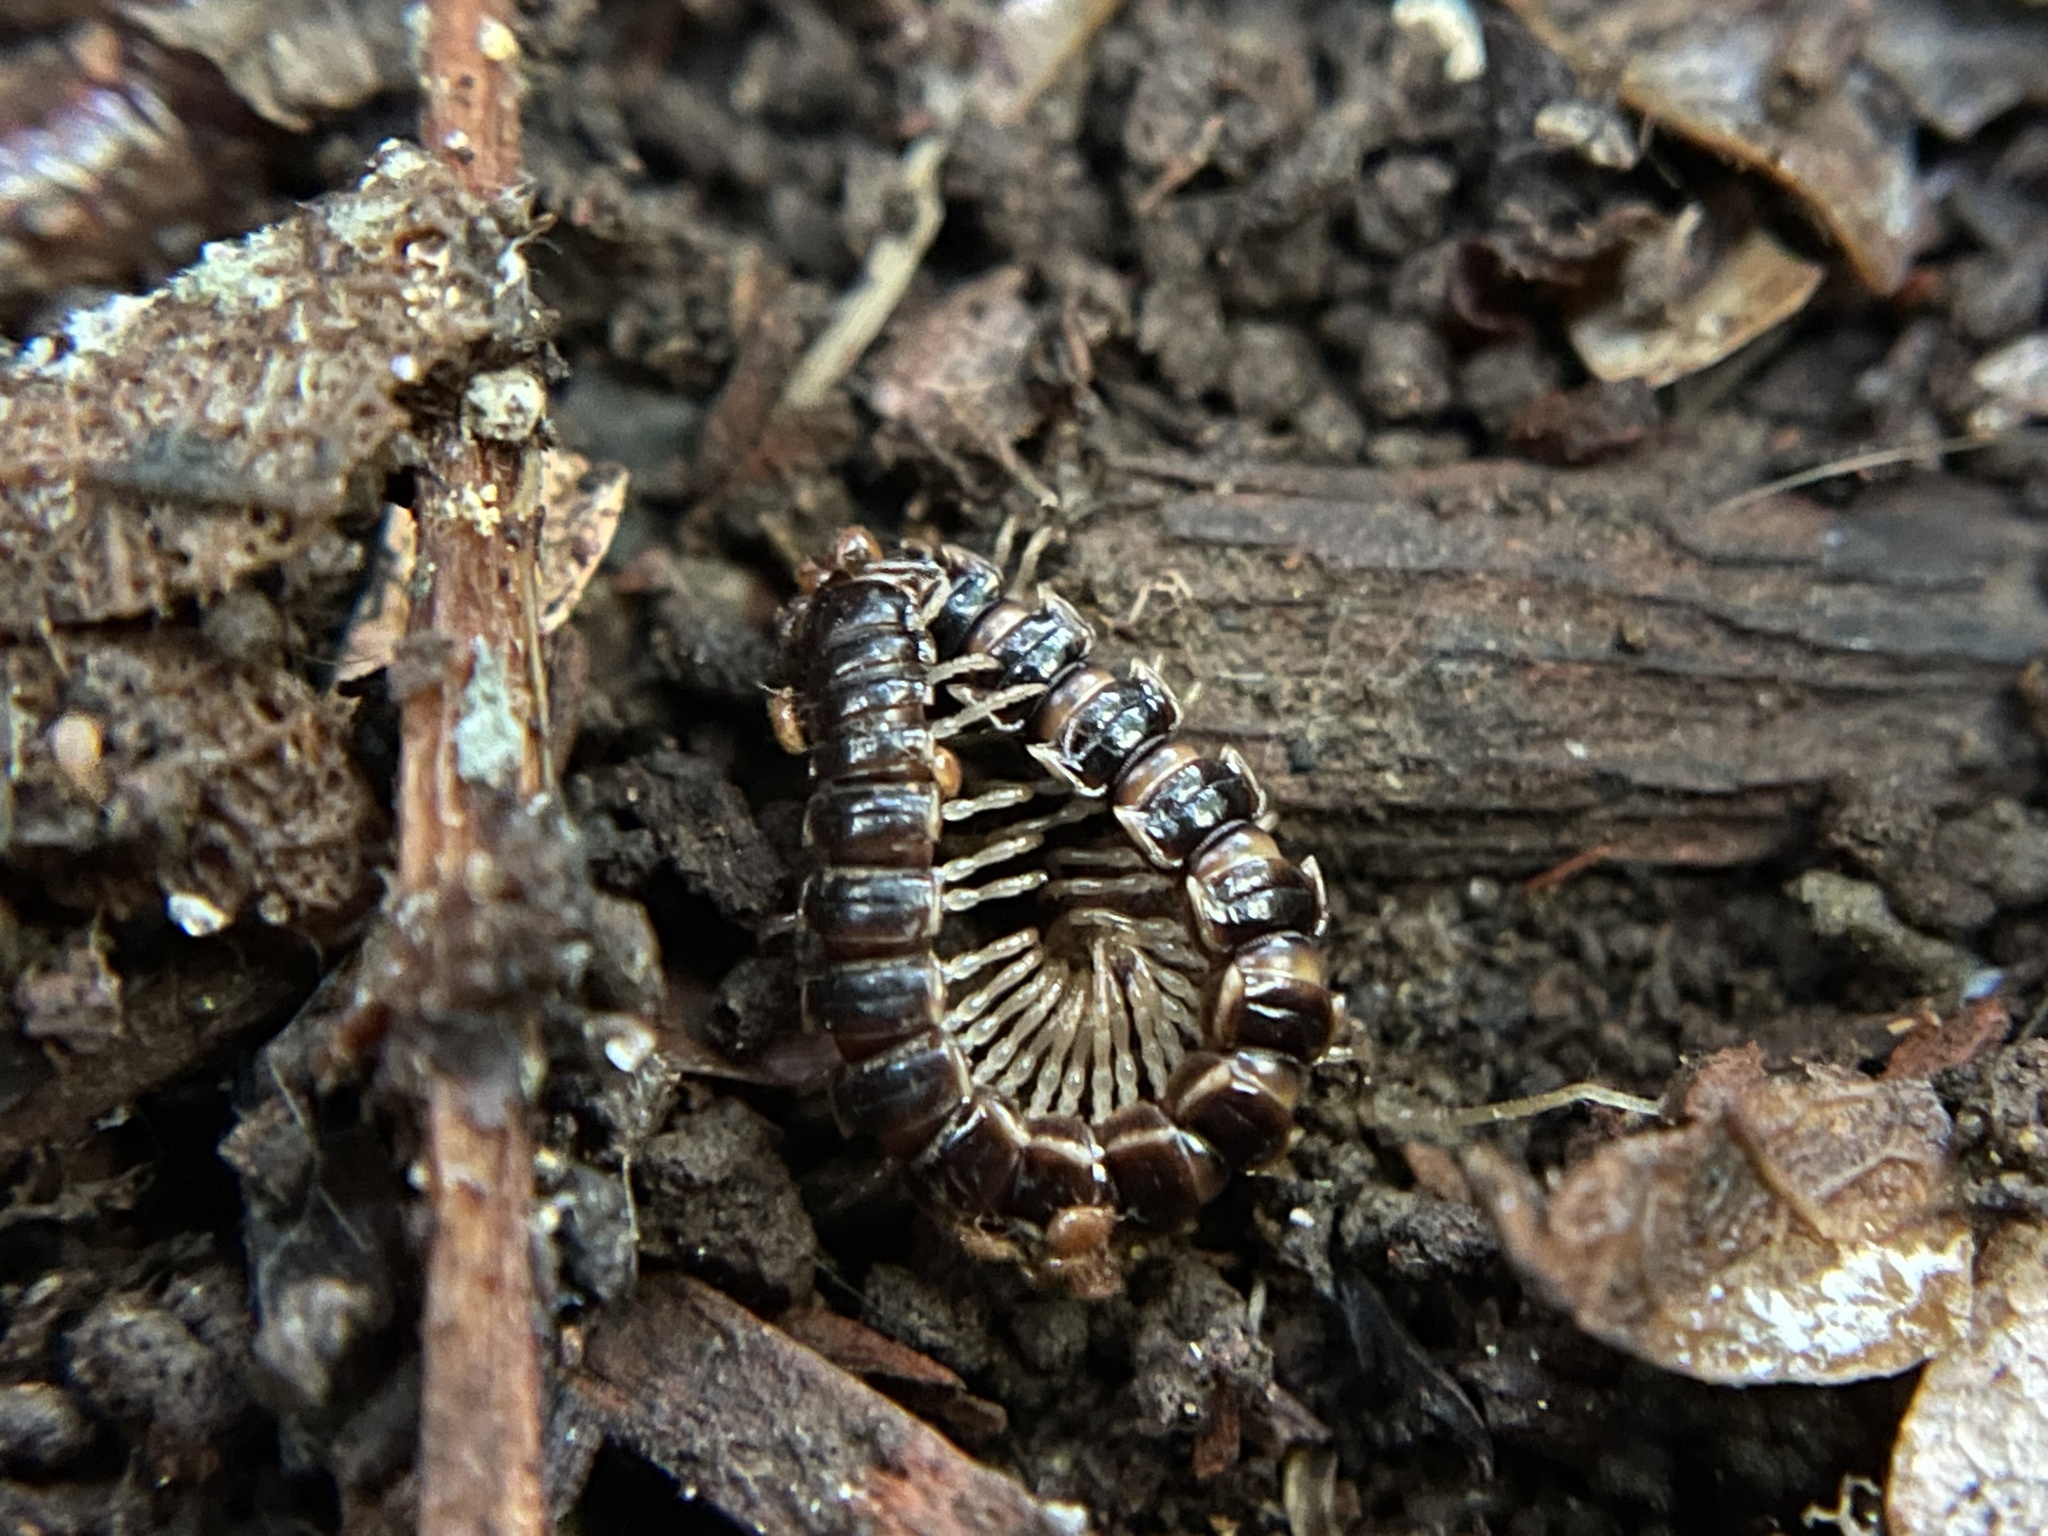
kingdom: Animalia
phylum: Arthropoda
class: Diplopoda
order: Polydesmida
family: Paradoxosomatidae
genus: Oxidus
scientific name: Oxidus gracilis
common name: Greenhouse millipede
